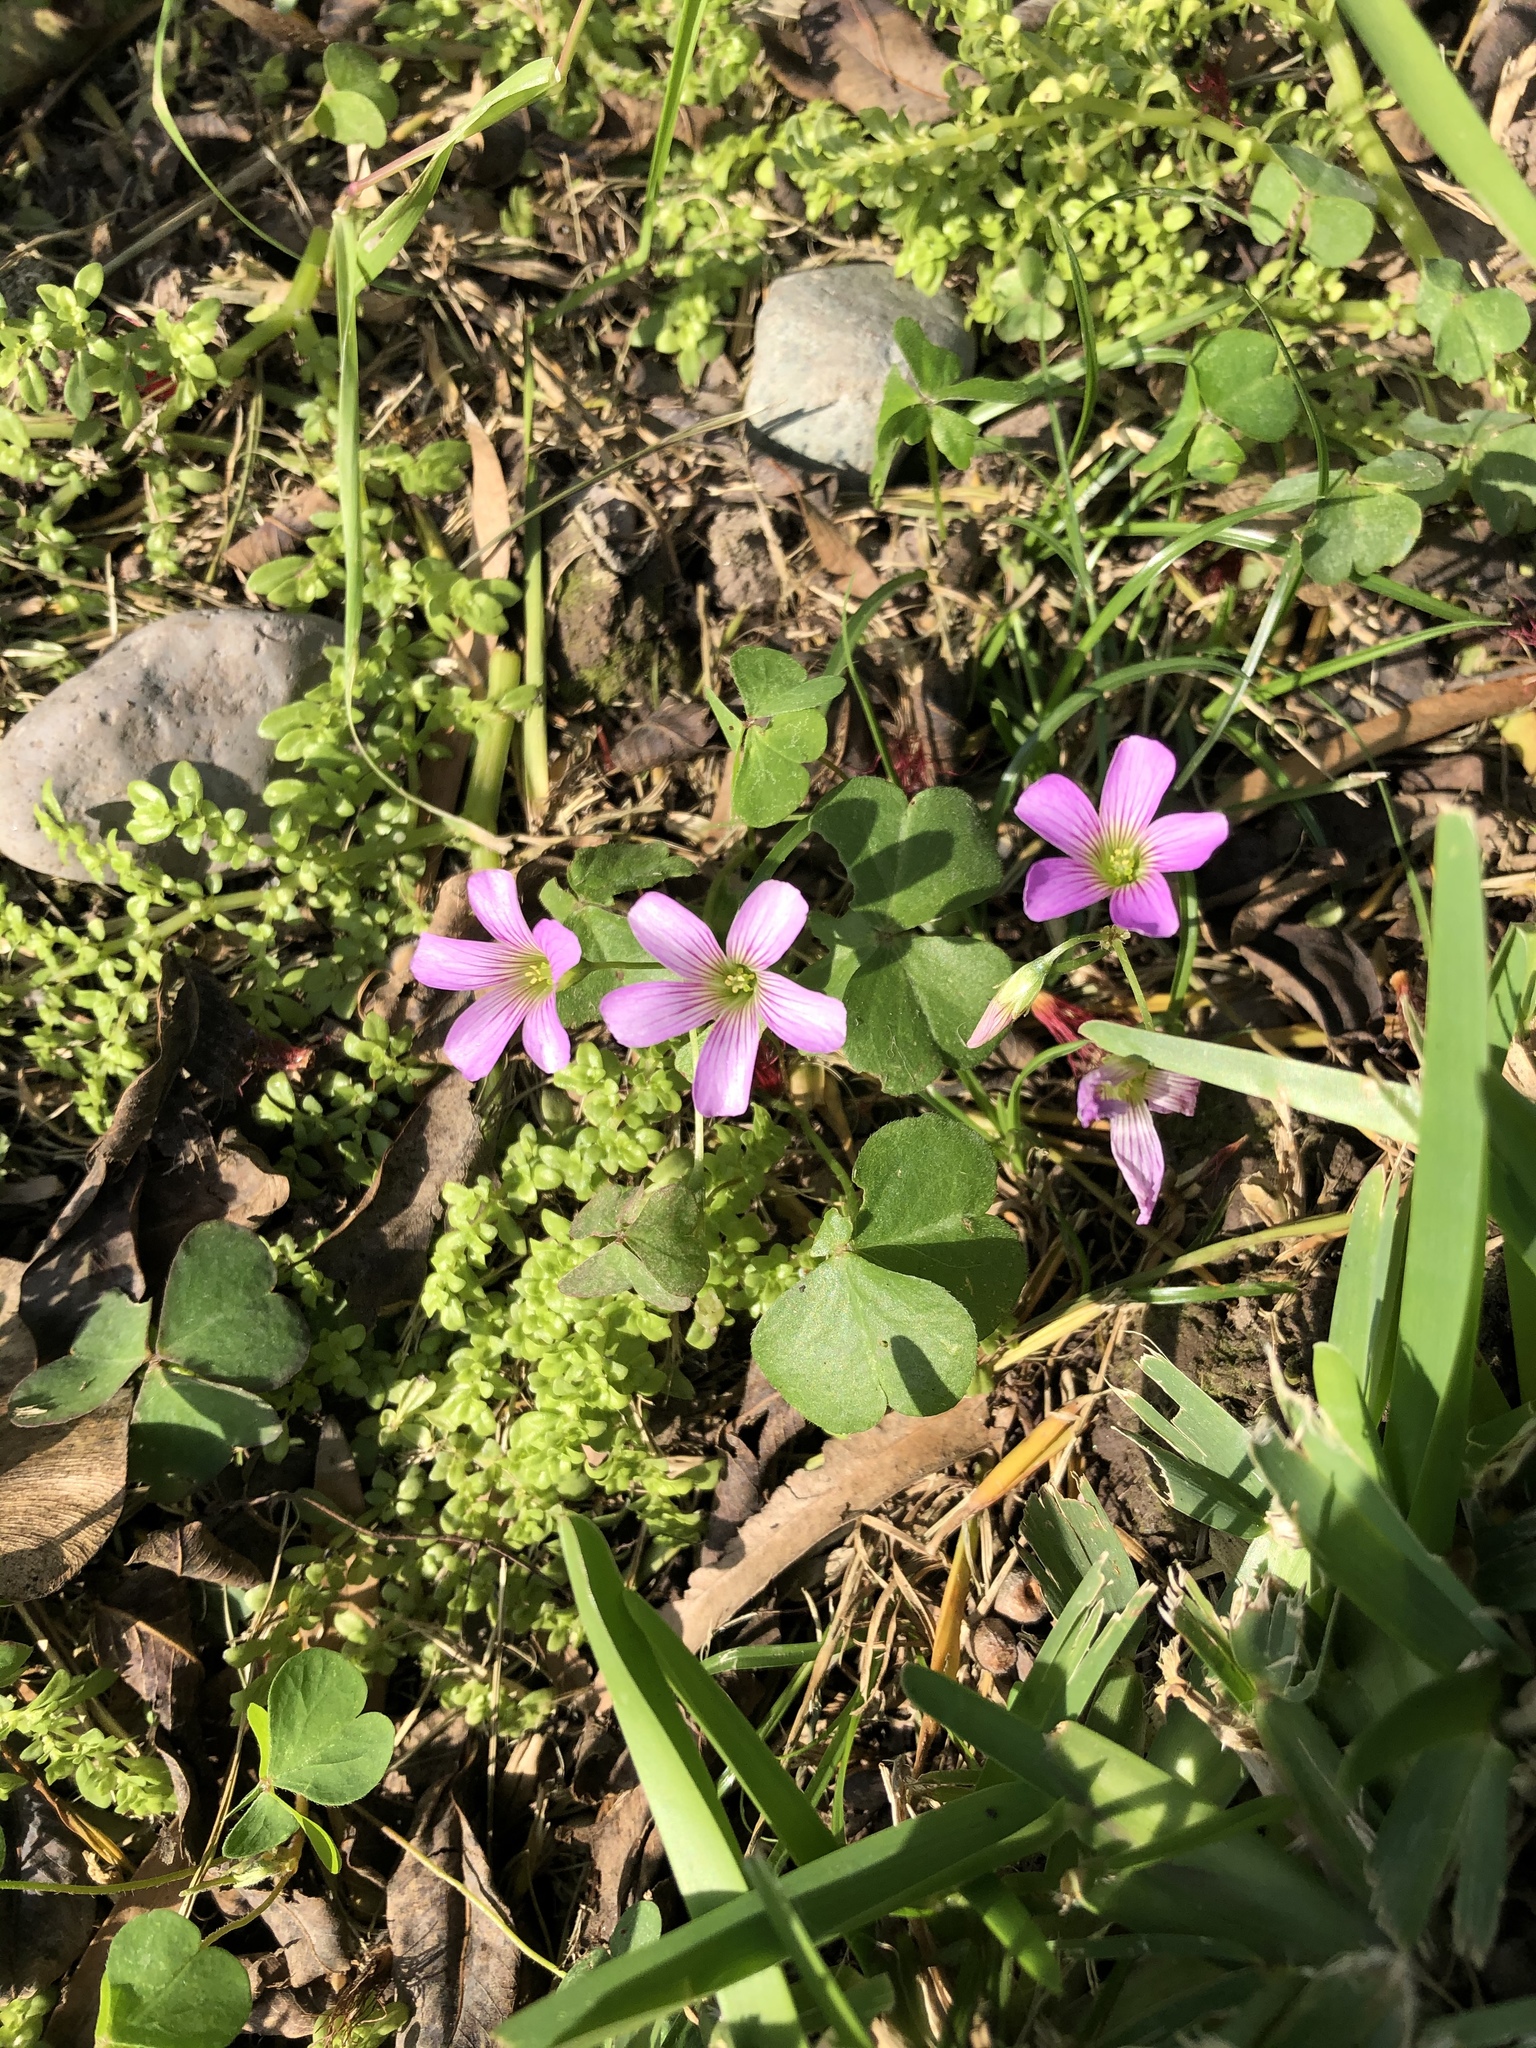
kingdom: Plantae
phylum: Tracheophyta
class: Magnoliopsida
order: Oxalidales
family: Oxalidaceae
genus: Oxalis
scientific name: Oxalis debilis
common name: Large-flowered pink-sorrel
